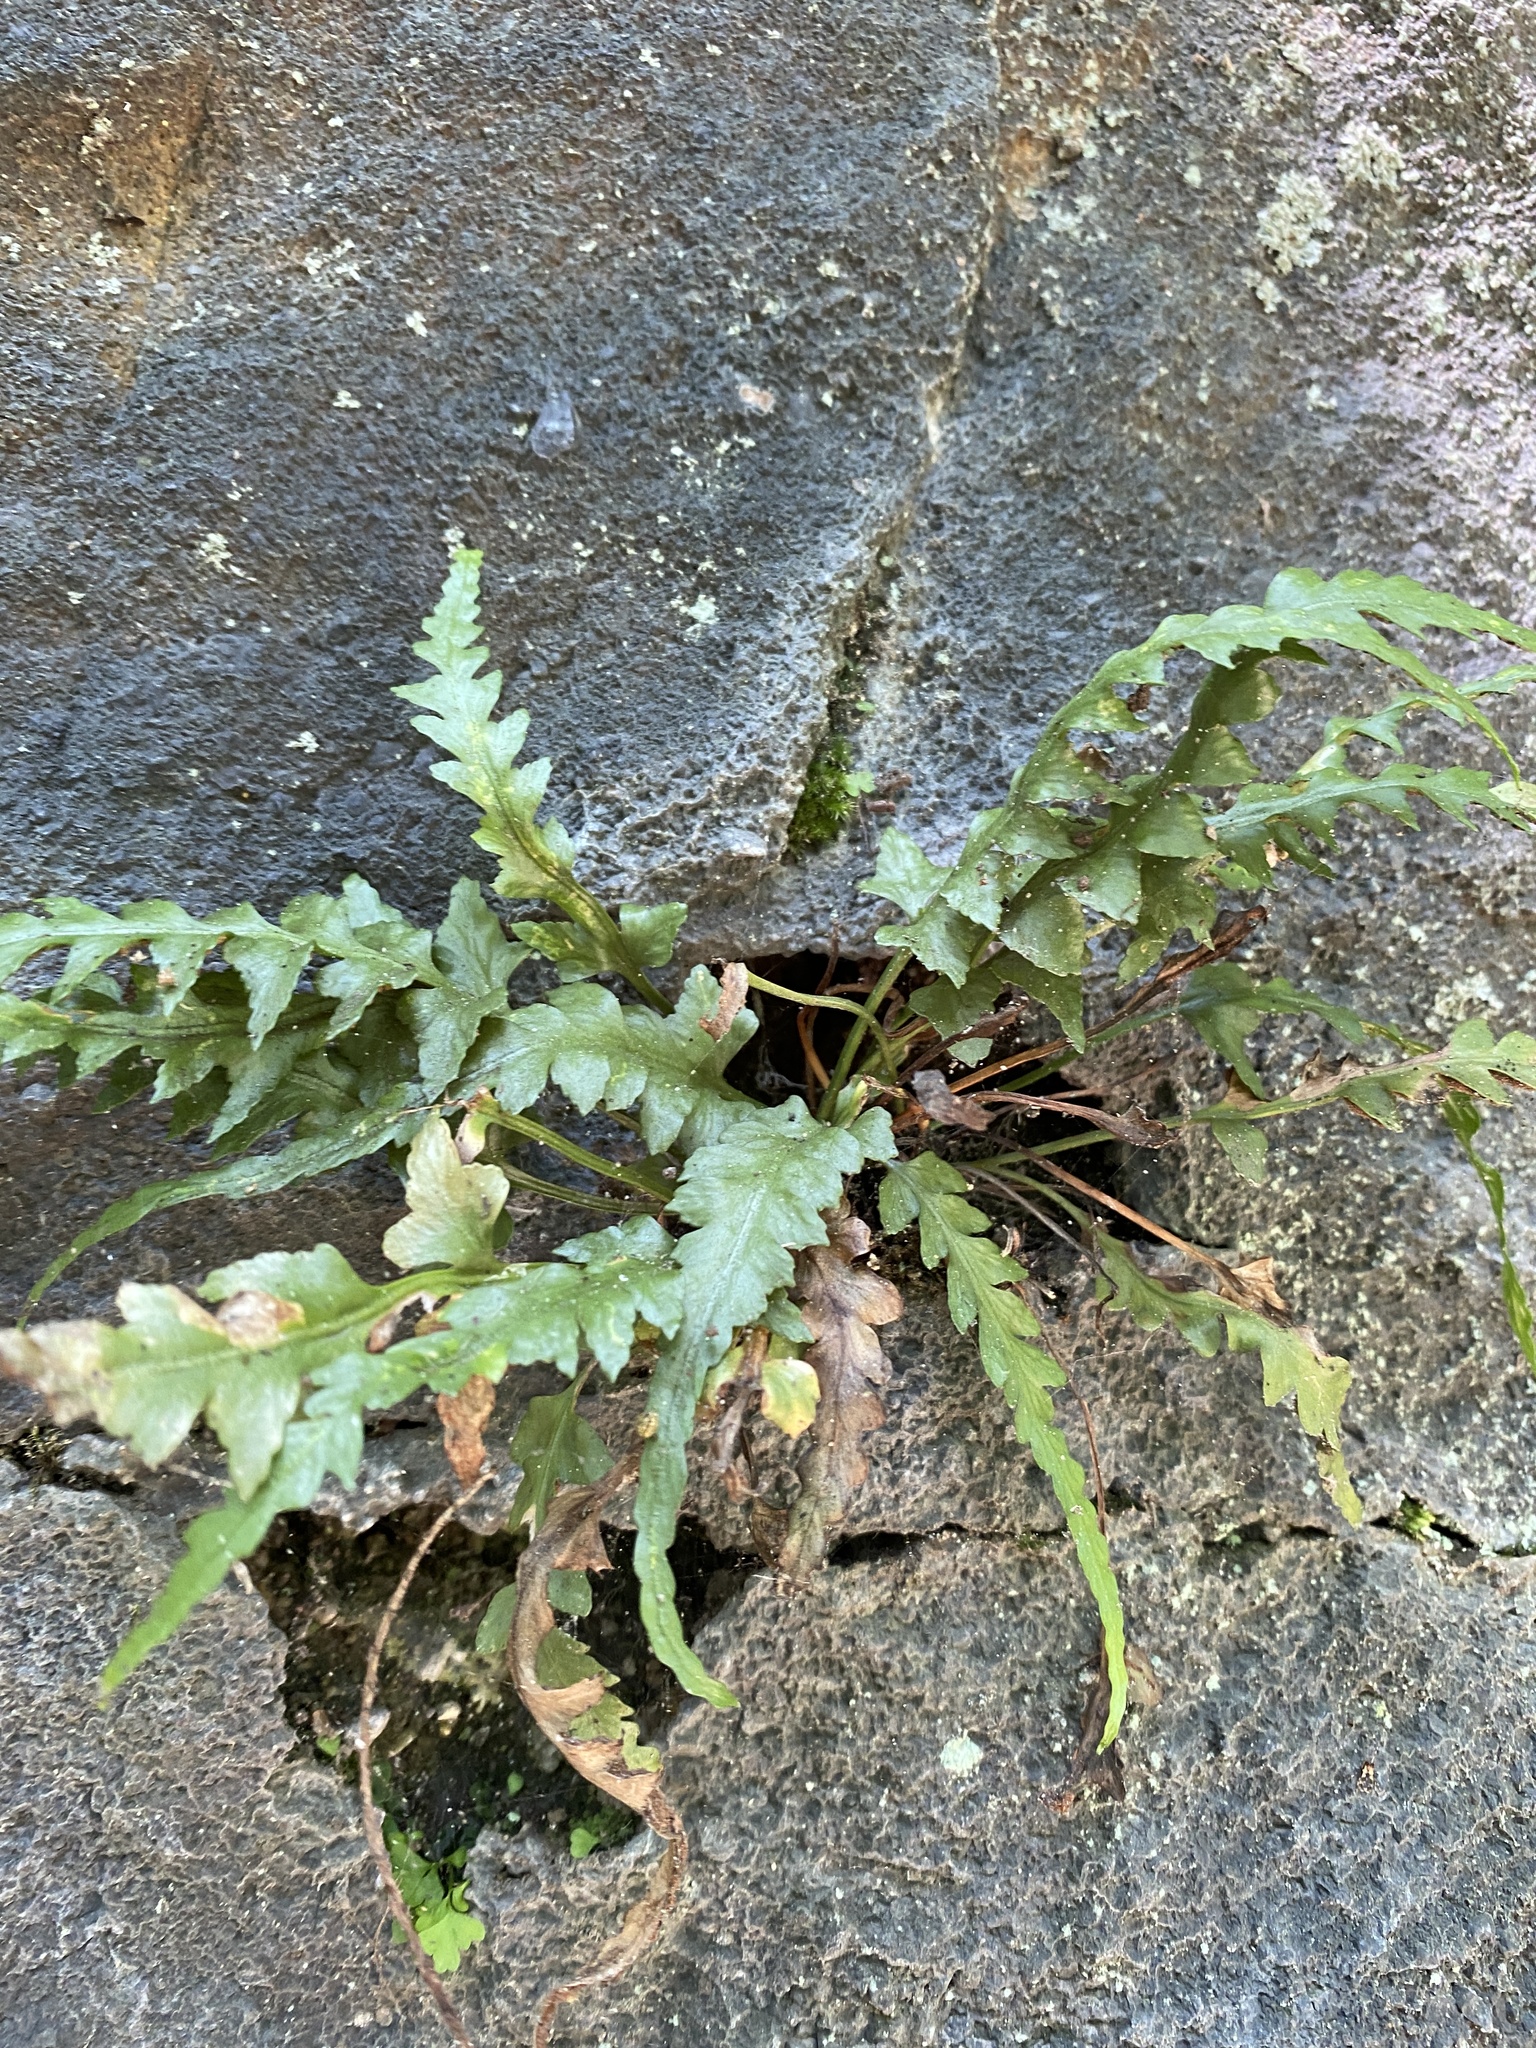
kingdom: Plantae
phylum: Tracheophyta
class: Polypodiopsida
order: Polypodiales
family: Aspleniaceae
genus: Asplenium
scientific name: Asplenium pinnatifidum
